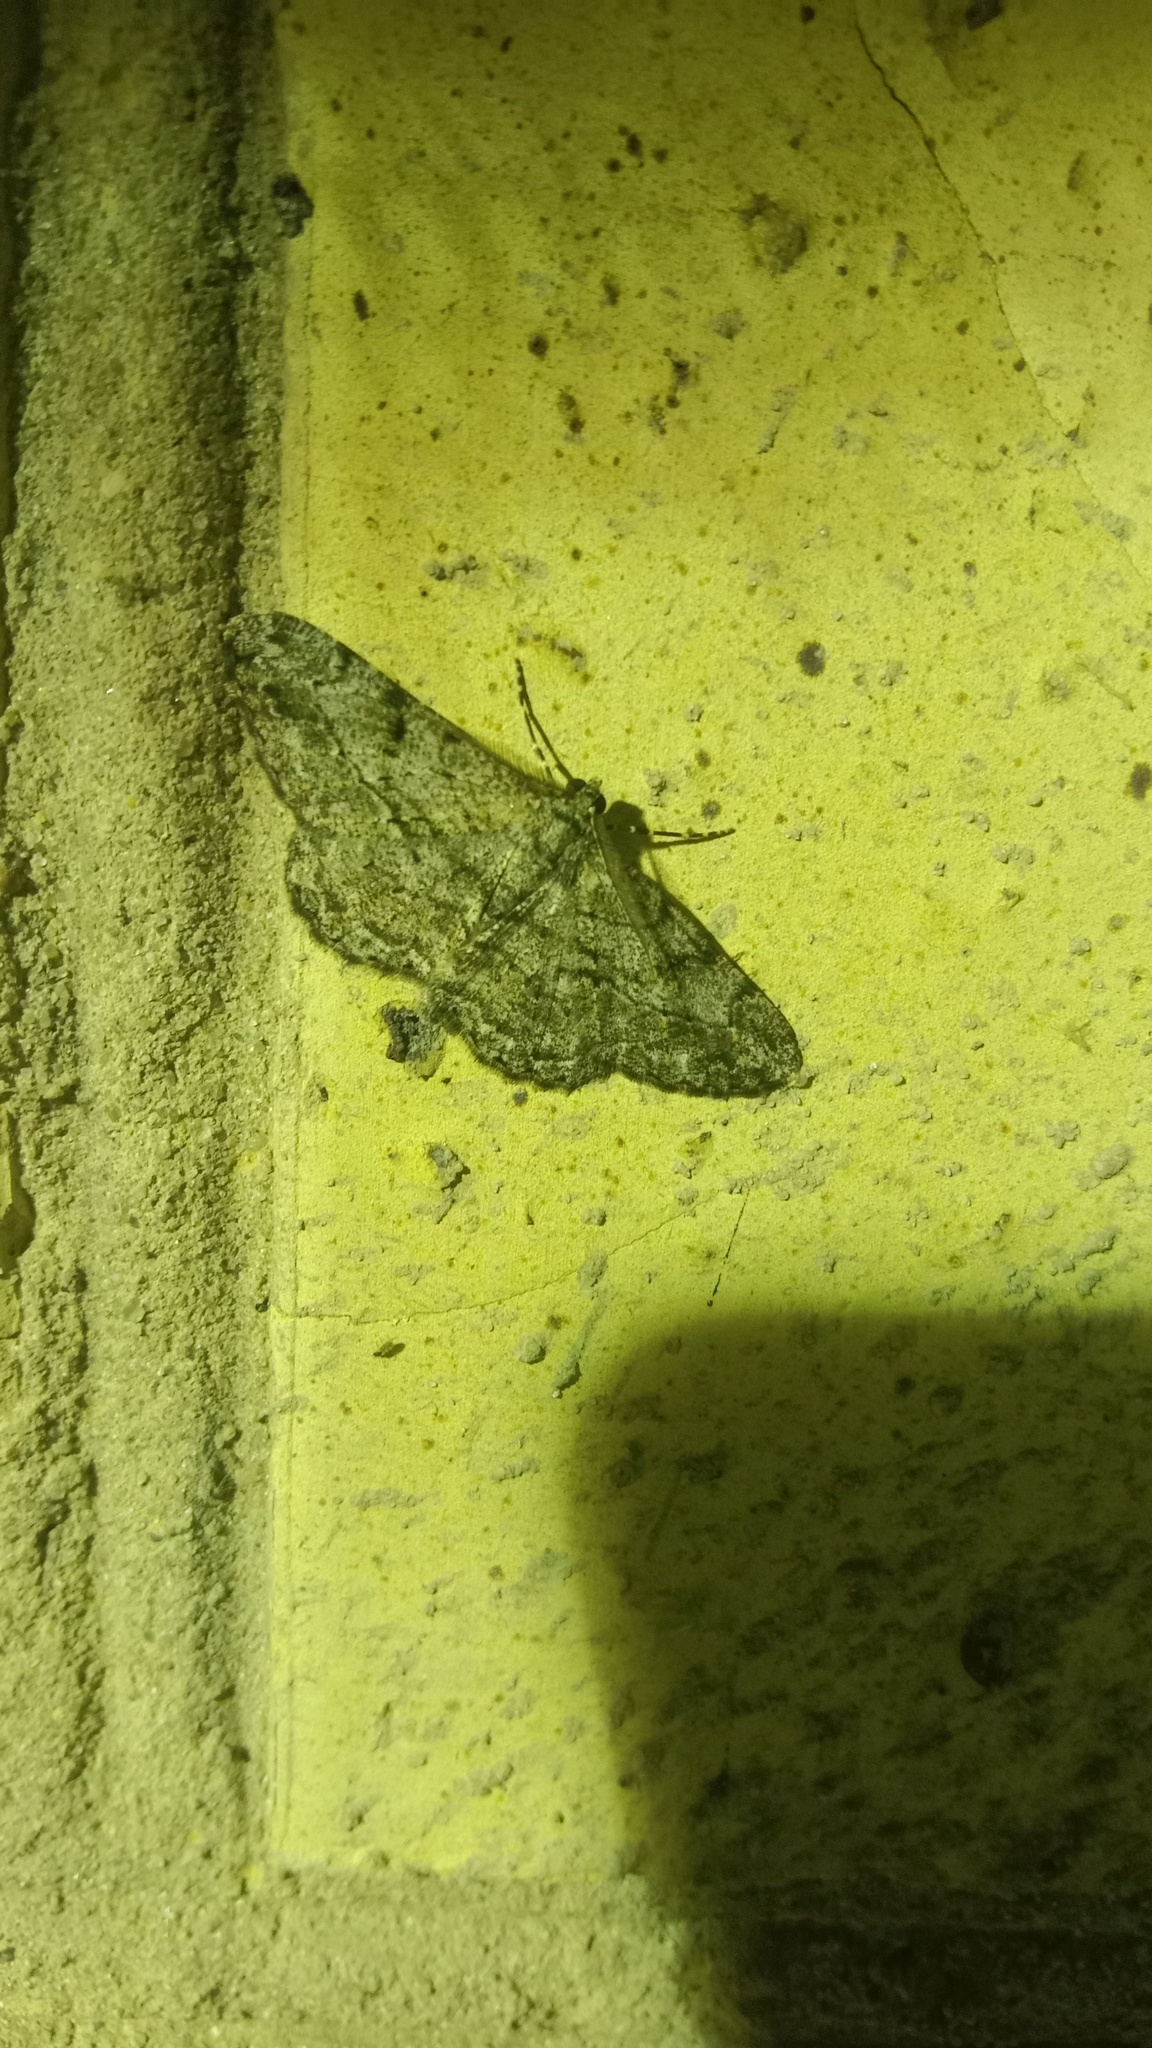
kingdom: Animalia
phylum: Arthropoda
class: Insecta
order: Lepidoptera
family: Geometridae
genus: Peribatodes
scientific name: Peribatodes rhomboidaria
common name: Willow beauty
